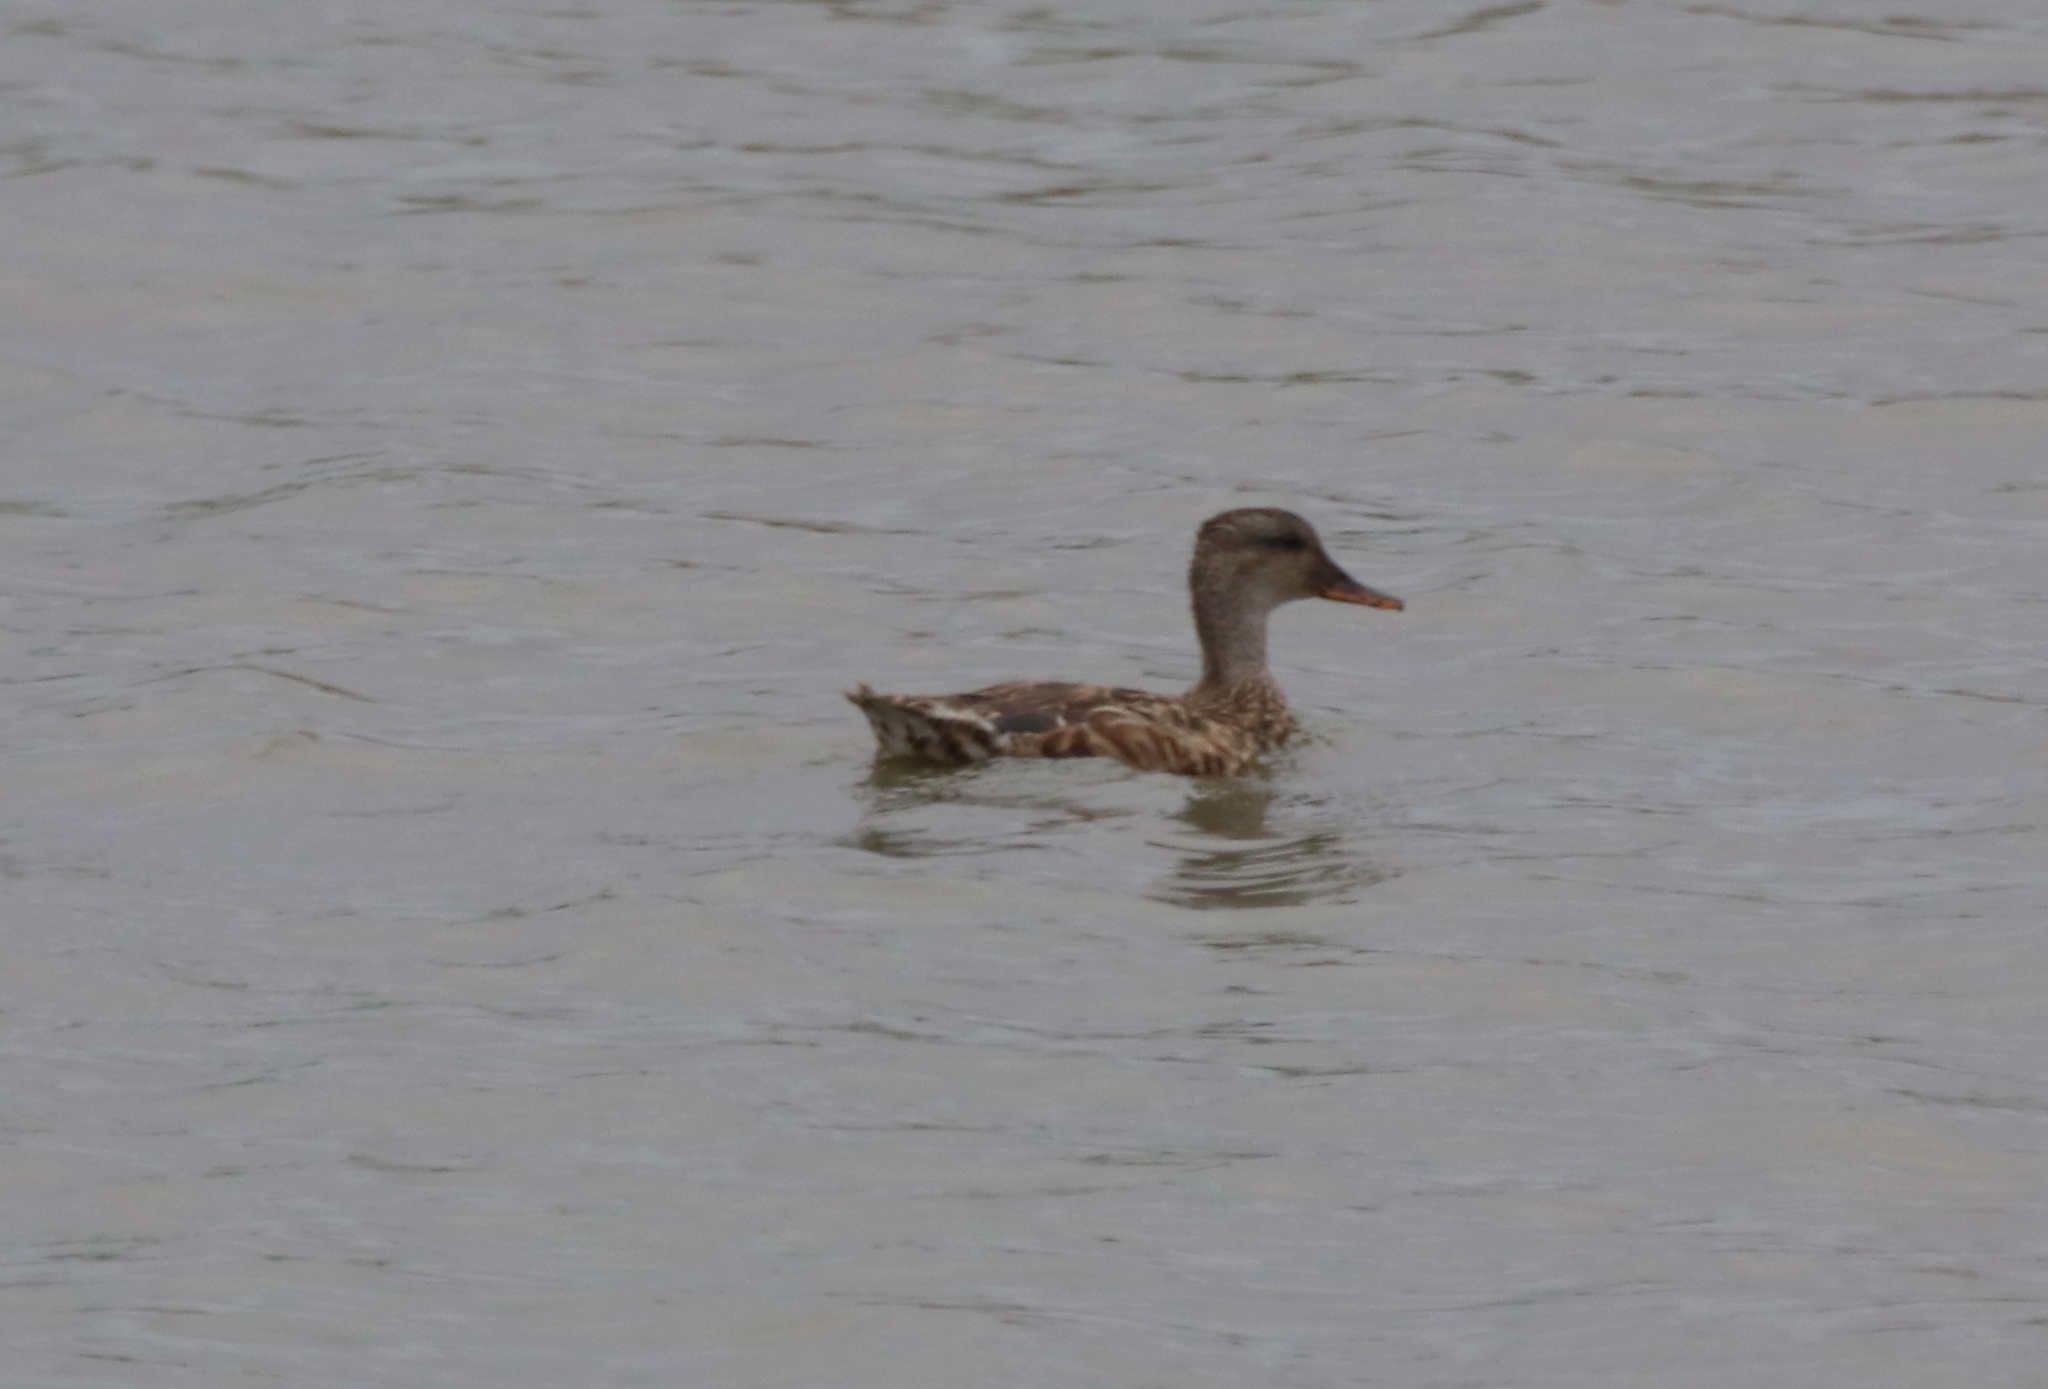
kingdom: Animalia
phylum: Chordata
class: Aves
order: Anseriformes
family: Anatidae
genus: Anas
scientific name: Anas platyrhynchos
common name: Mallard
